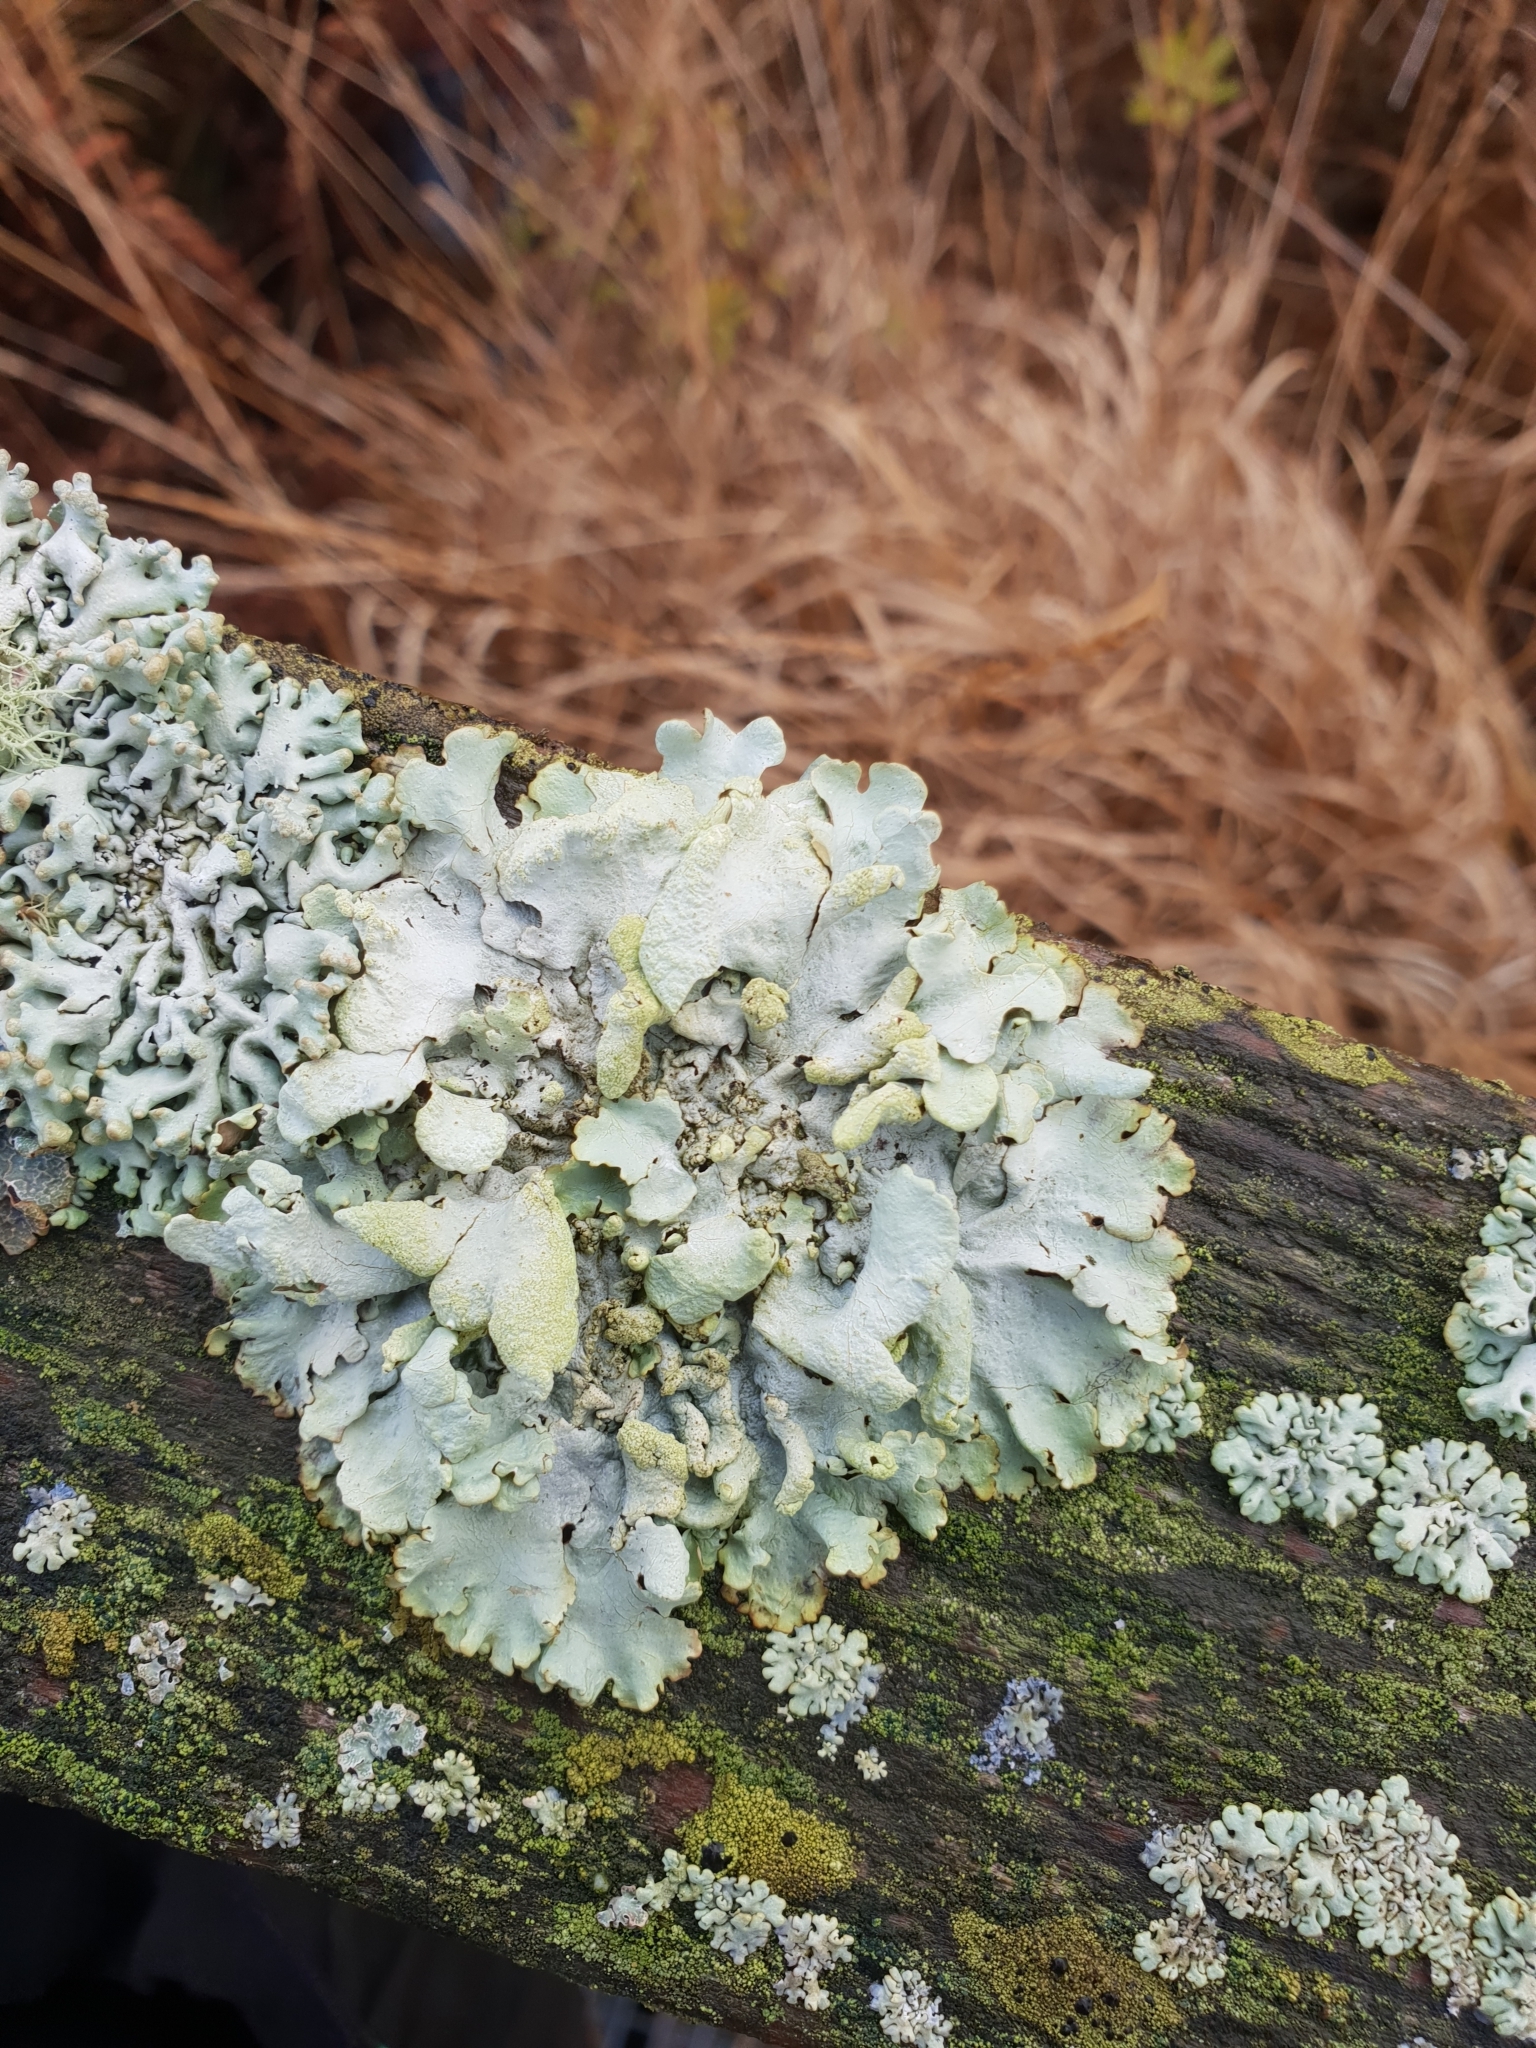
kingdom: Fungi
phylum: Ascomycota
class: Lecanoromycetes
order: Lecanorales
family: Parmeliaceae
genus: Hypotrachyna
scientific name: Hypotrachyna revoluta
